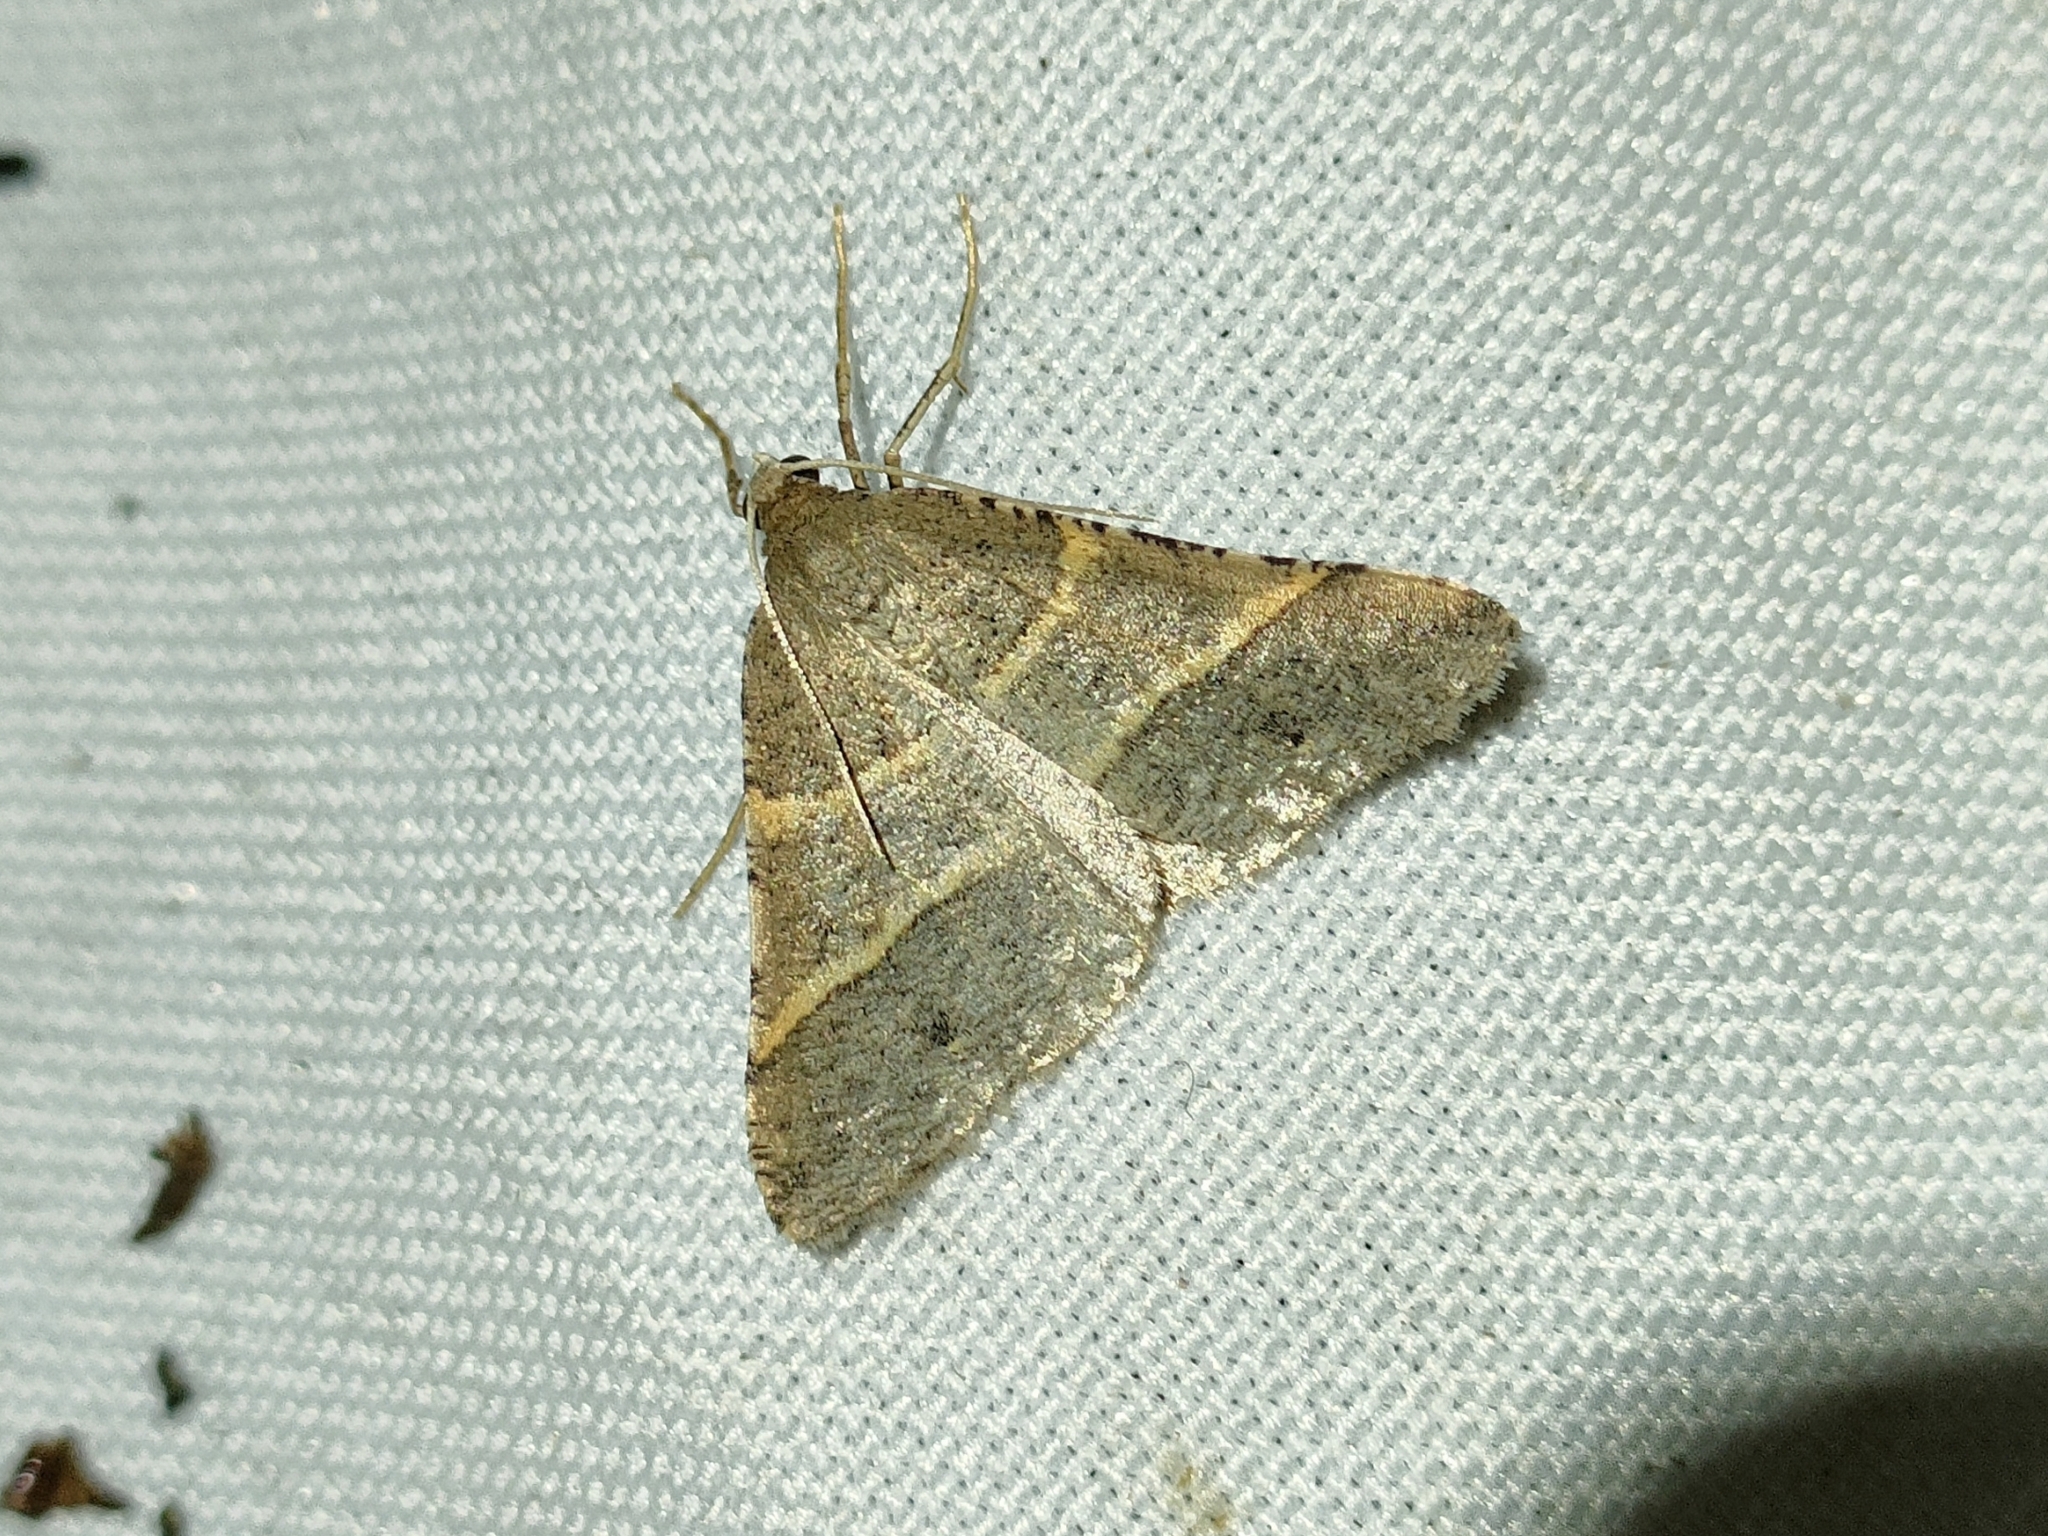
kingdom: Animalia
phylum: Arthropoda
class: Insecta
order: Lepidoptera
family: Pterophoridae
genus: Pterophorus
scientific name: Pterophorus Petrophora narbonea
